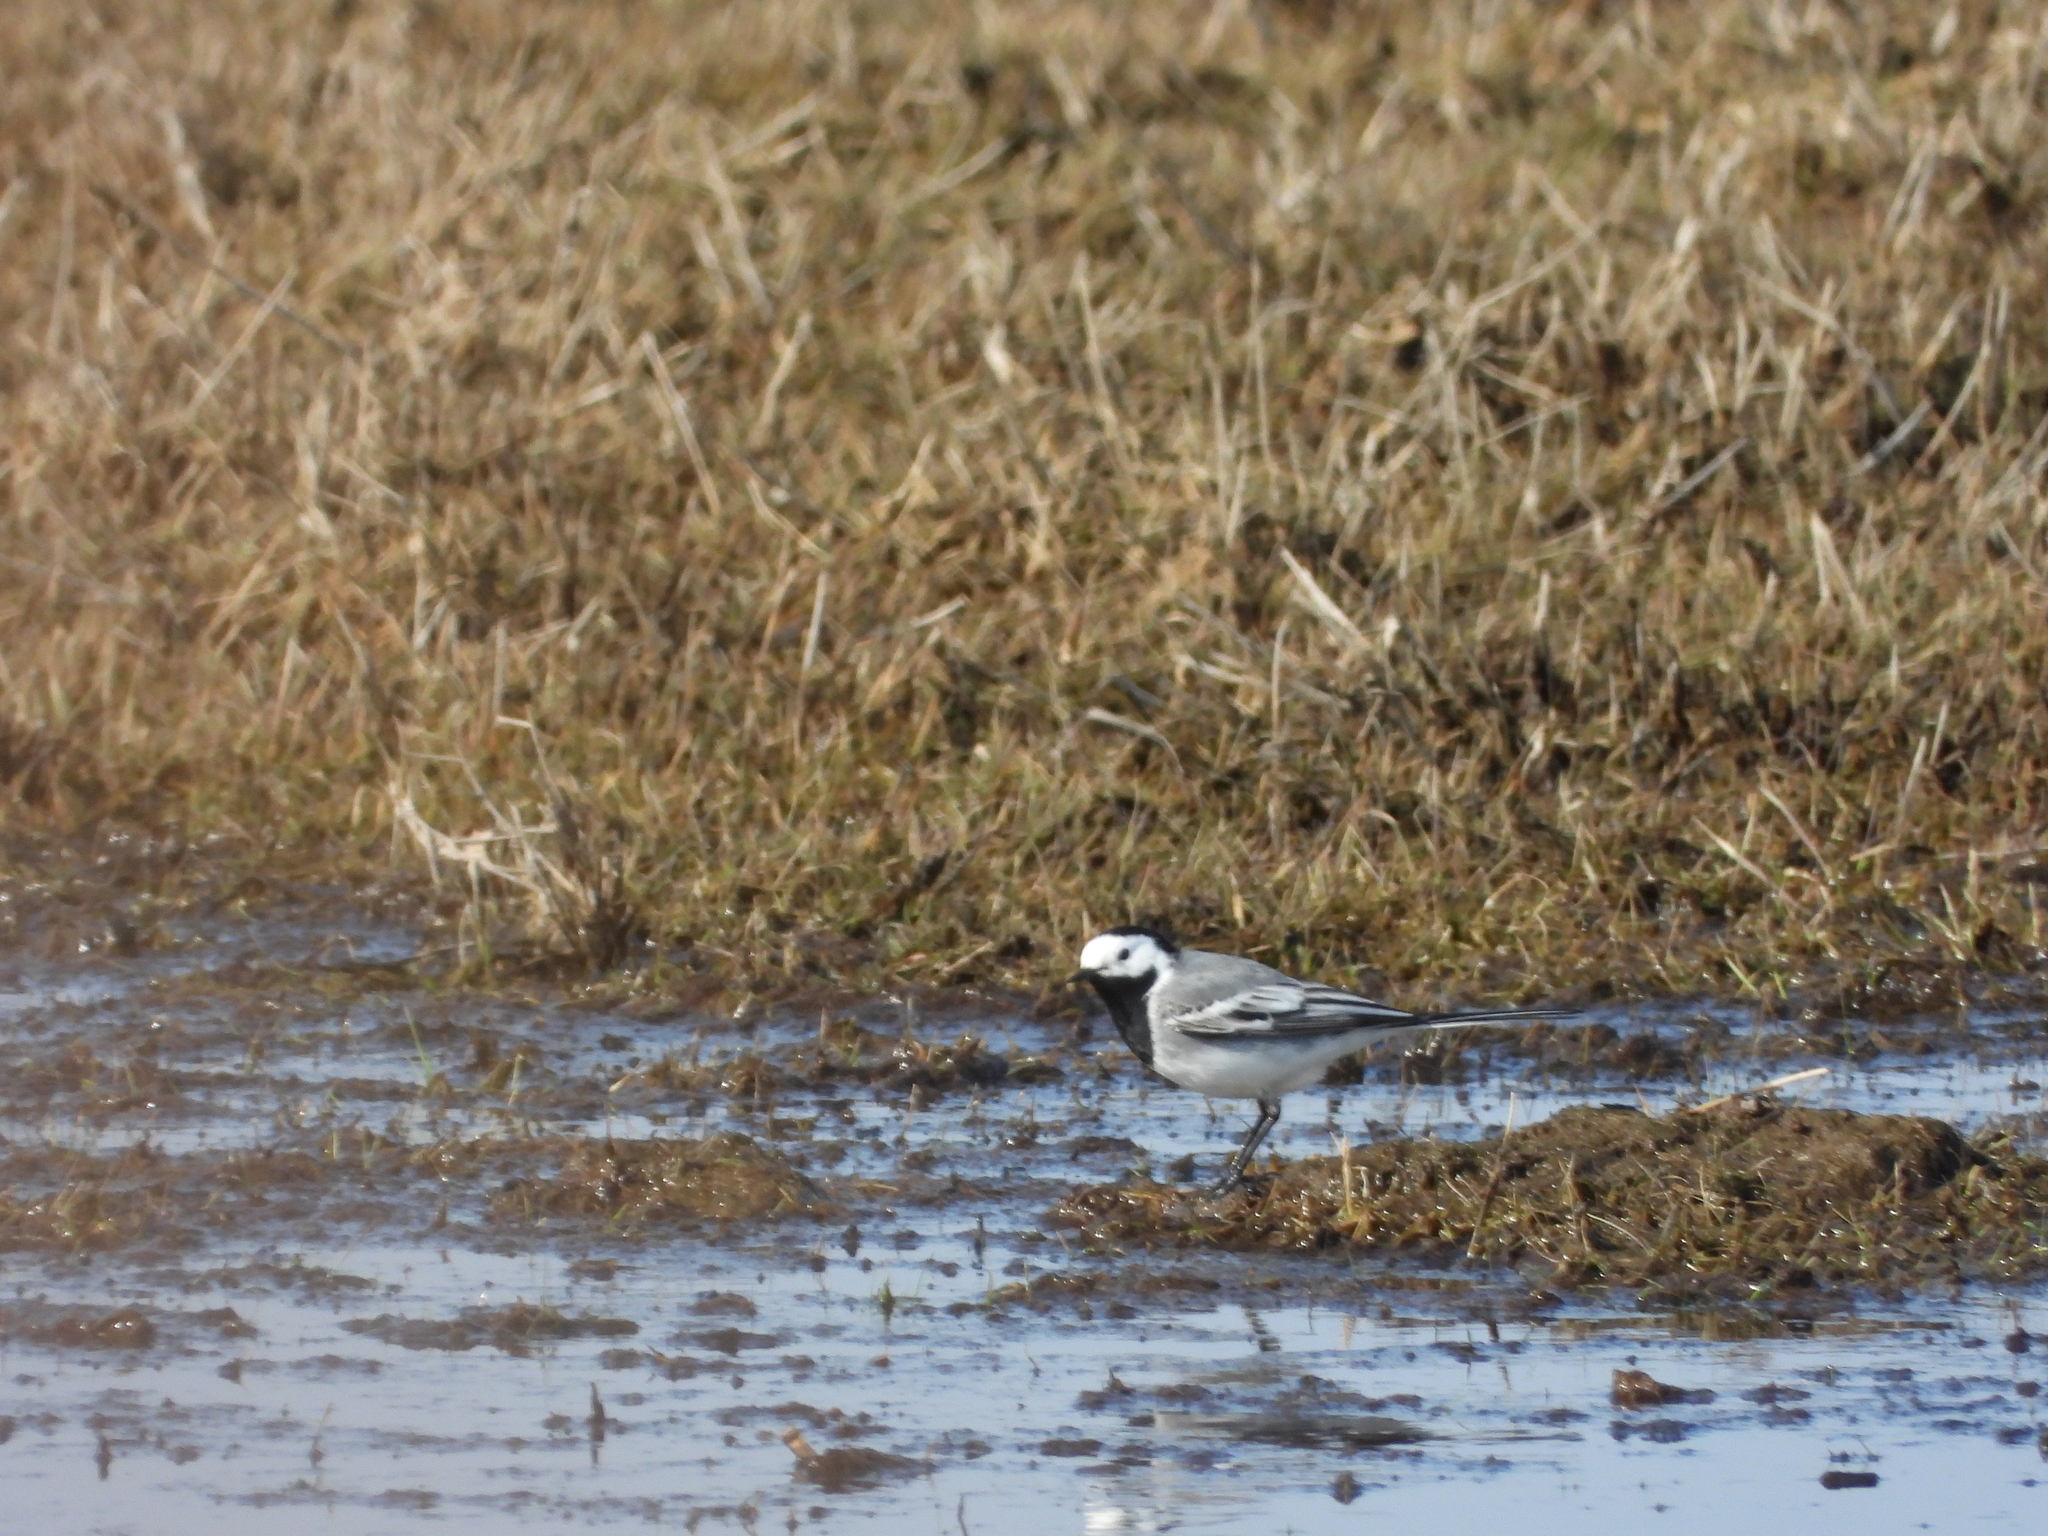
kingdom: Animalia
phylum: Chordata
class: Aves
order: Passeriformes
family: Motacillidae
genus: Motacilla
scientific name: Motacilla alba
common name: White wagtail
